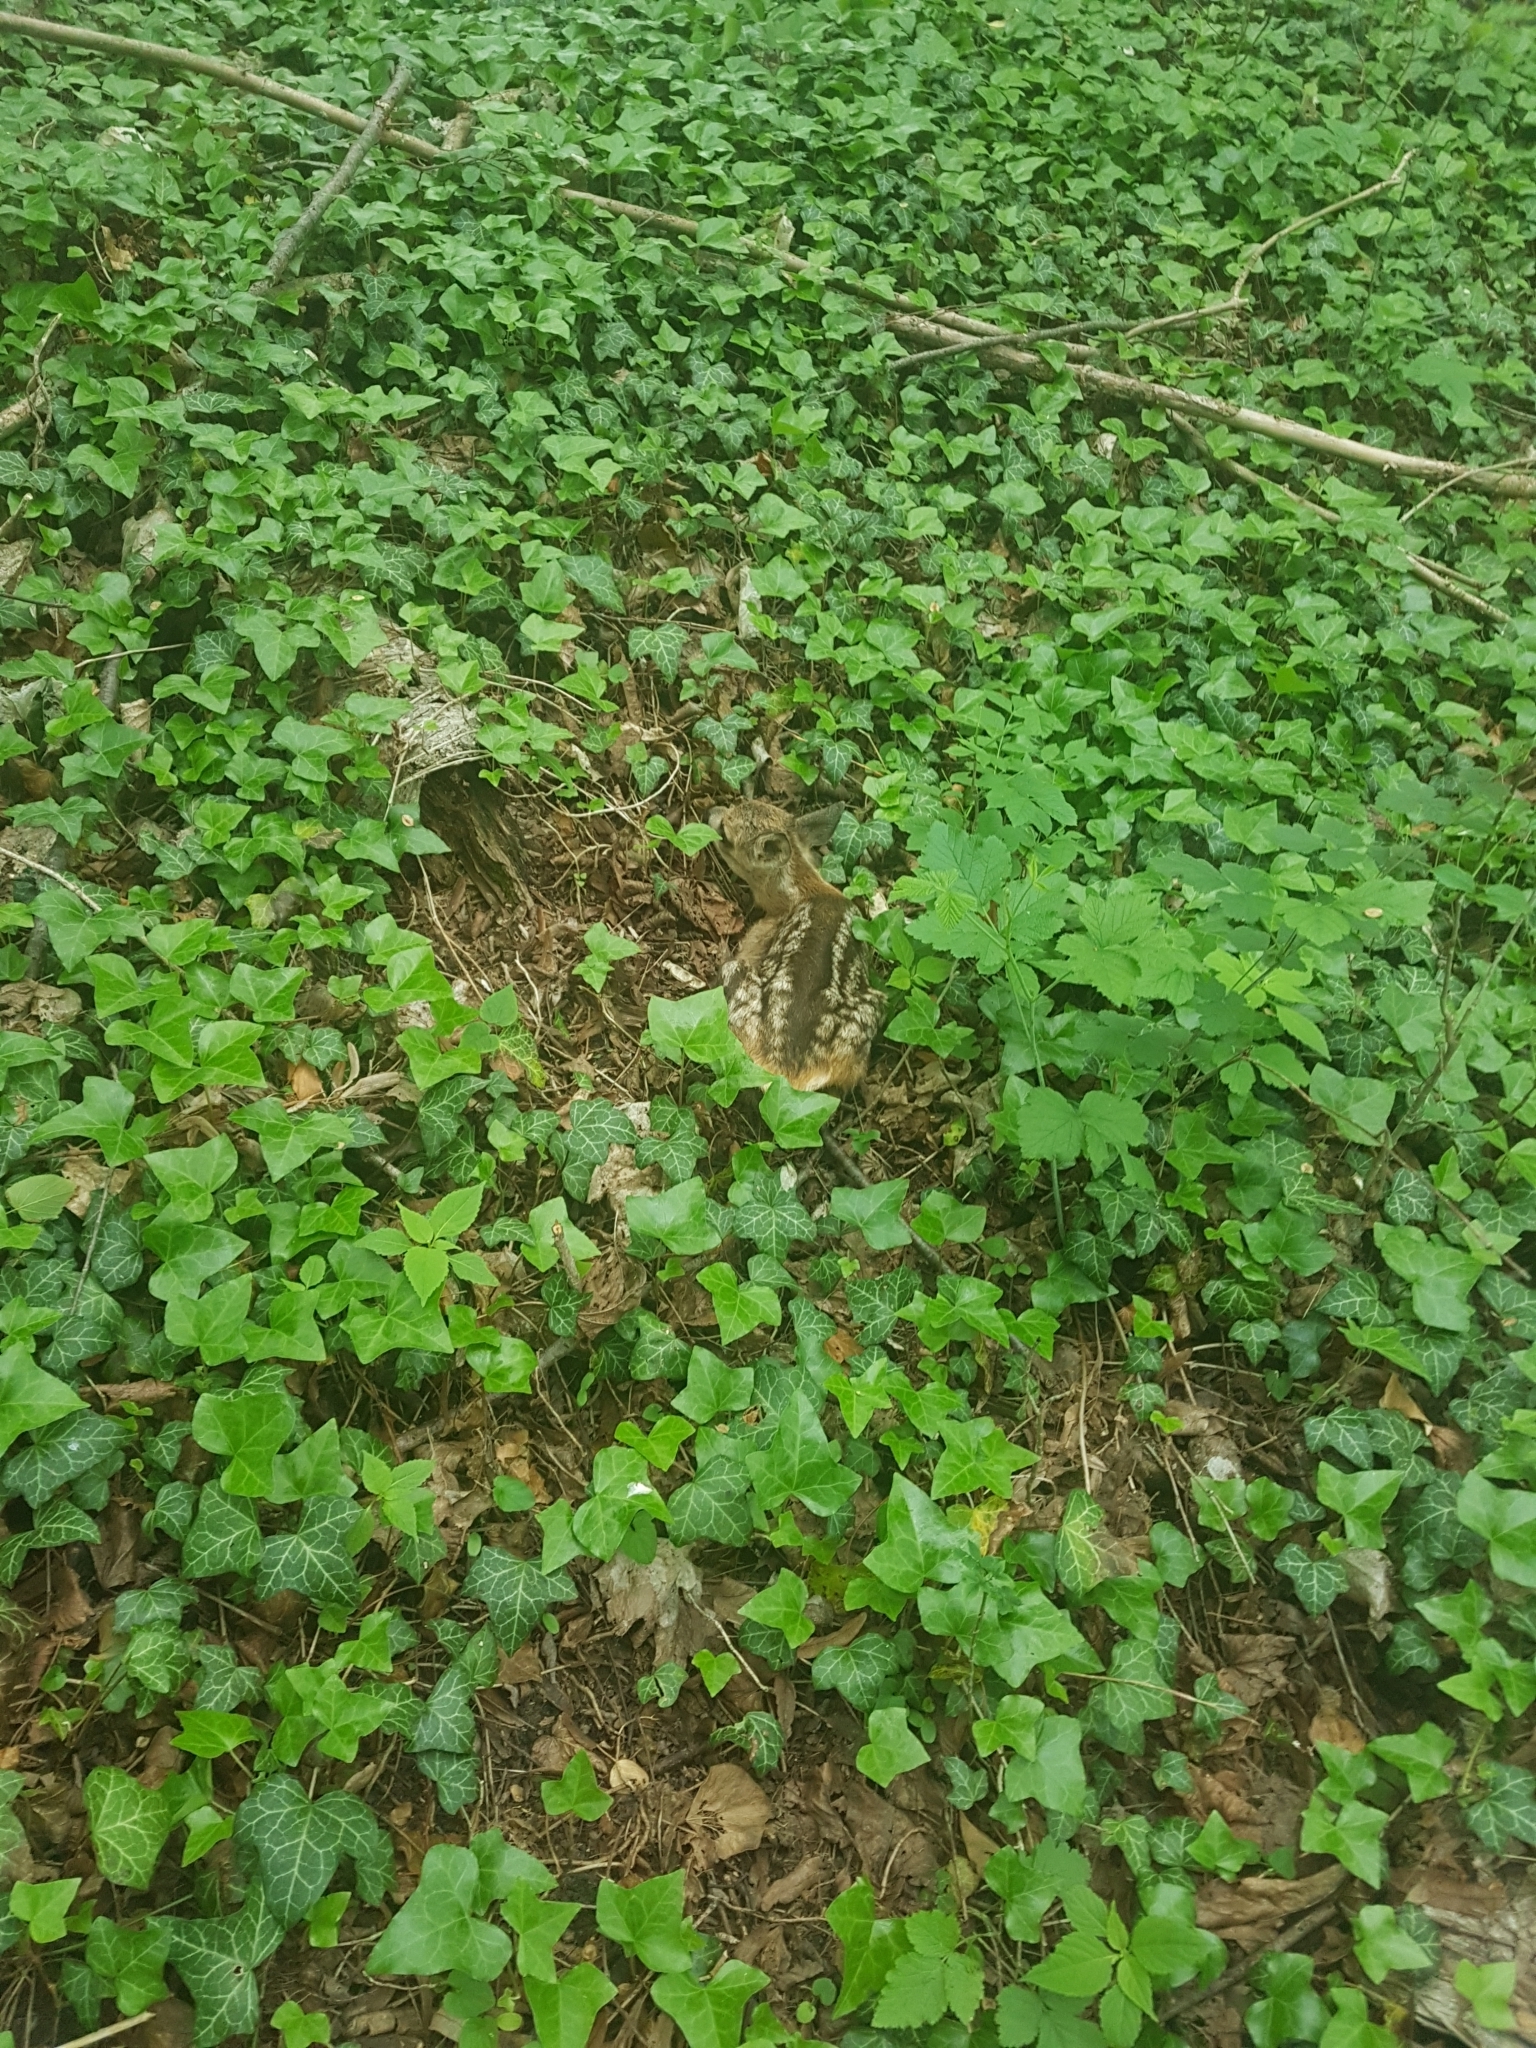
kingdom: Animalia
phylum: Chordata
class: Mammalia
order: Artiodactyla
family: Cervidae
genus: Capreolus
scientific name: Capreolus capreolus
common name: Western roe deer
